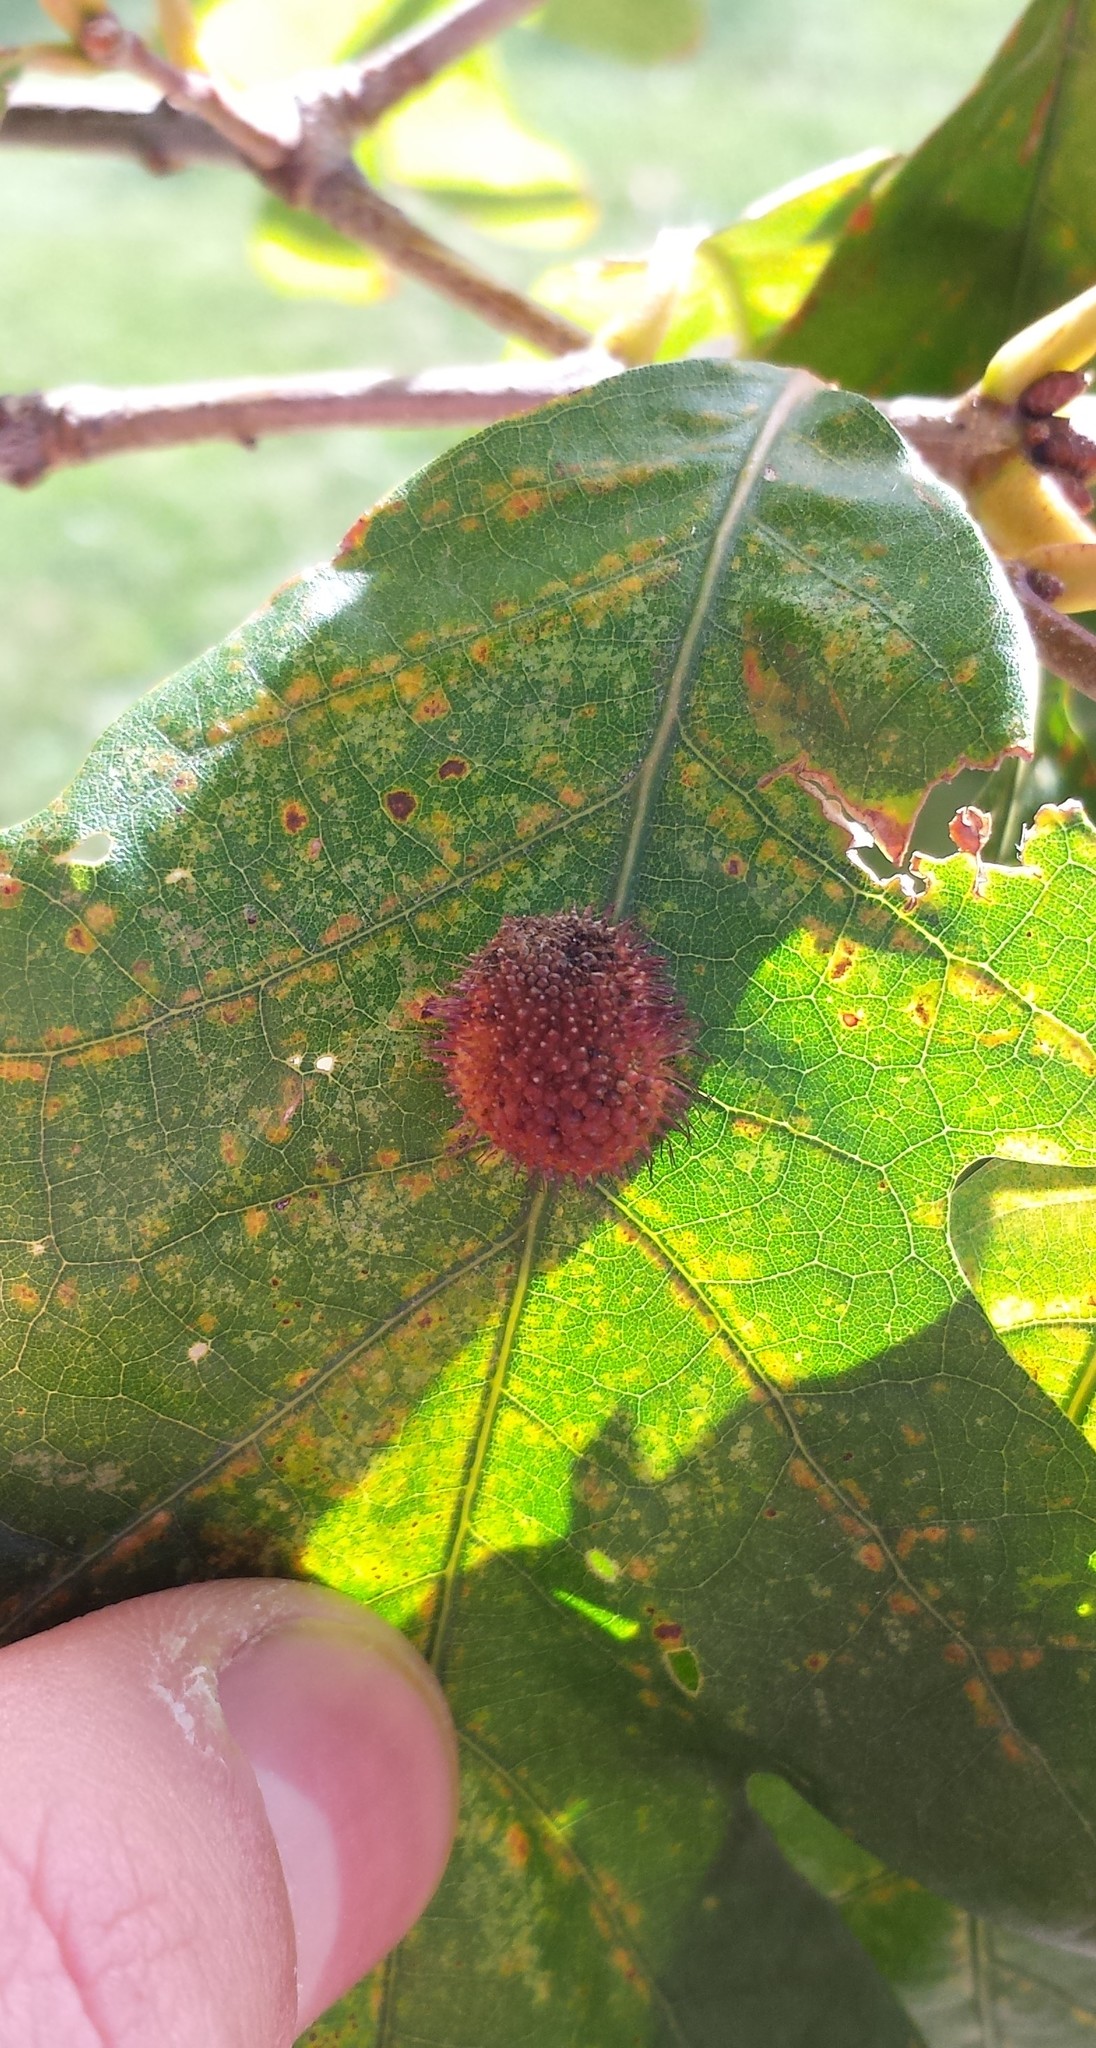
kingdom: Animalia
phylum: Arthropoda
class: Insecta
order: Hymenoptera
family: Cynipidae
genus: Acraspis
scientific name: Acraspis erinacei
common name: Hedgehog gall wasp
